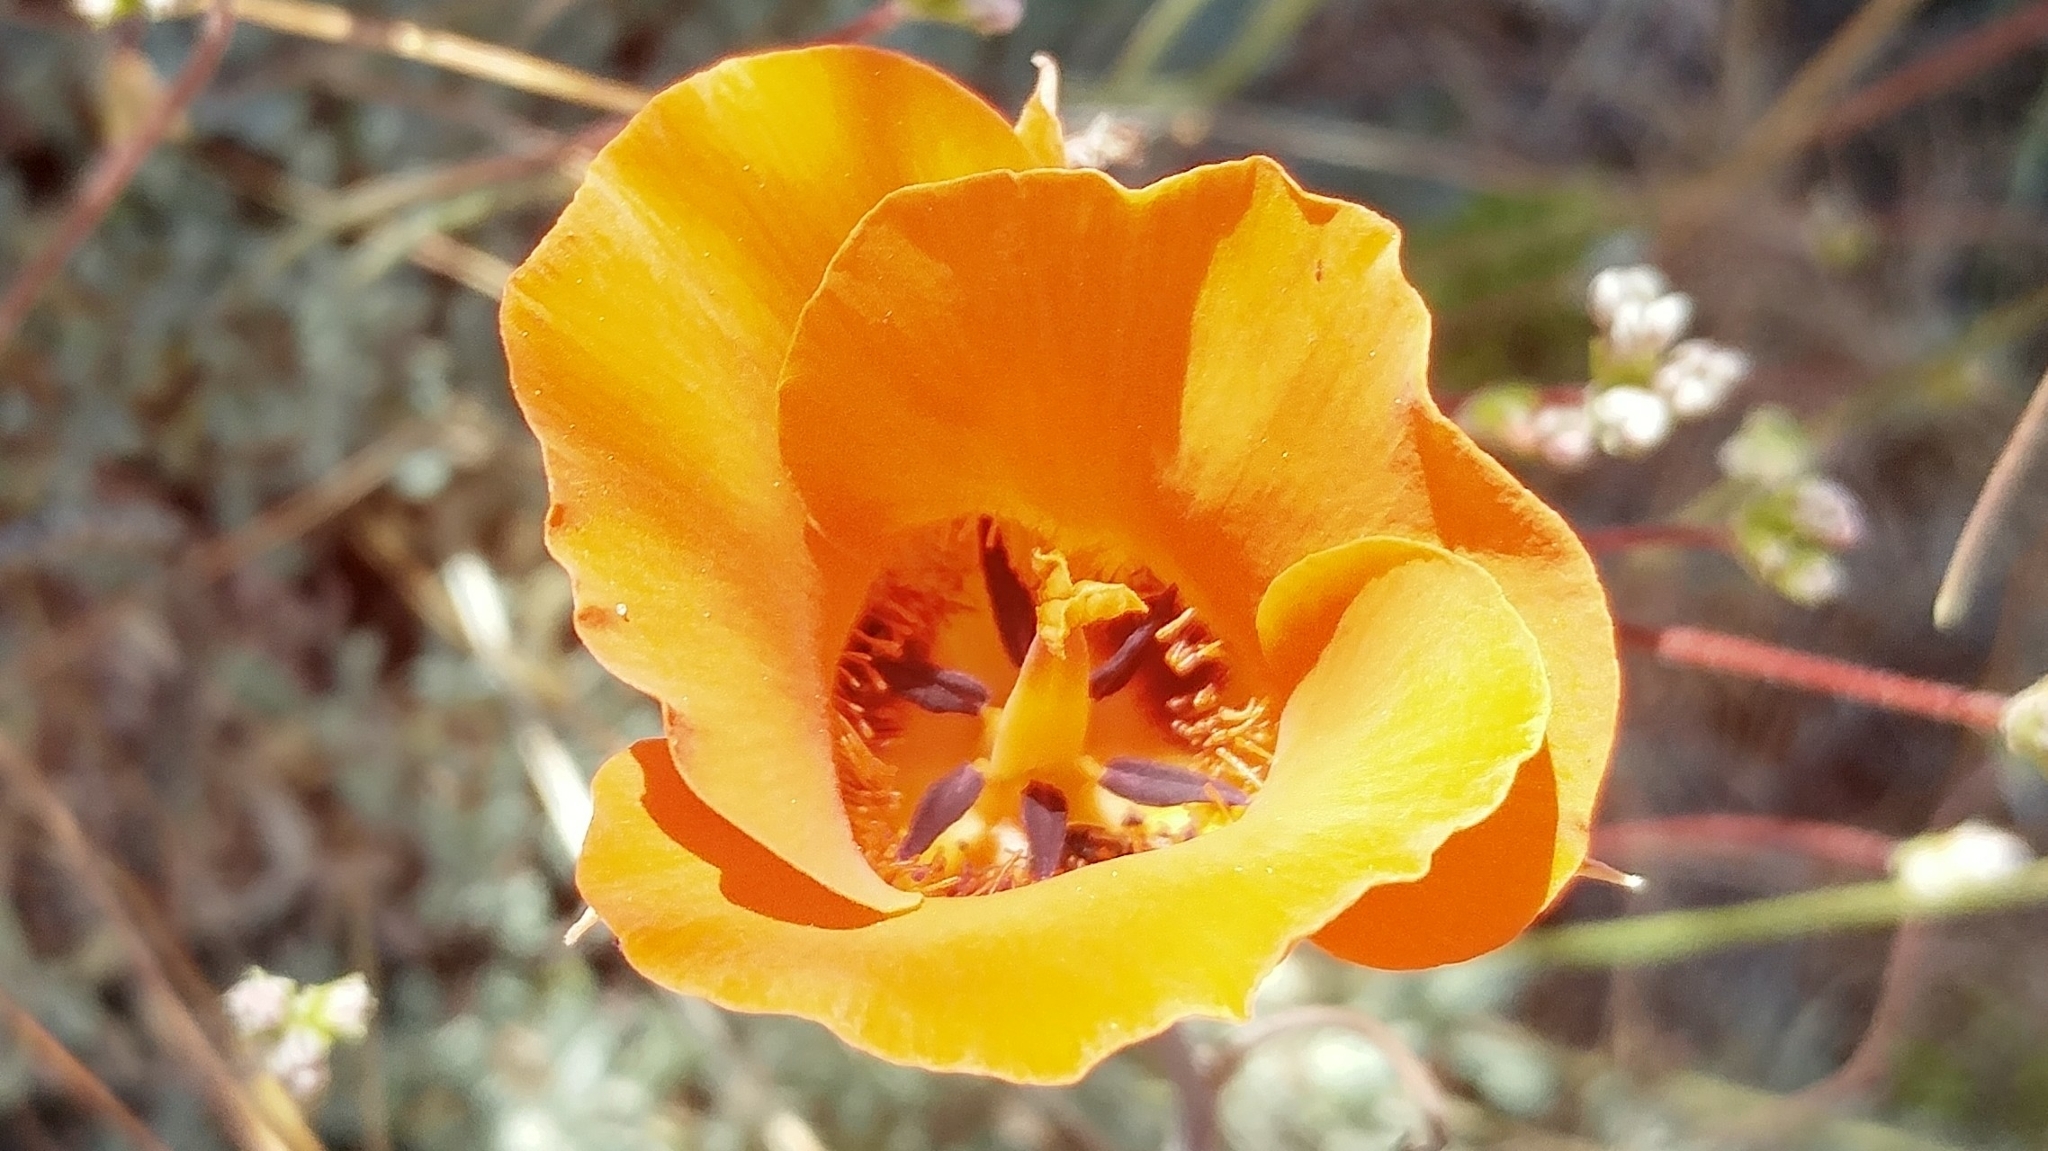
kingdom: Plantae
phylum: Tracheophyta
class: Liliopsida
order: Liliales
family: Liliaceae
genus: Calochortus
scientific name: Calochortus kennedyi
